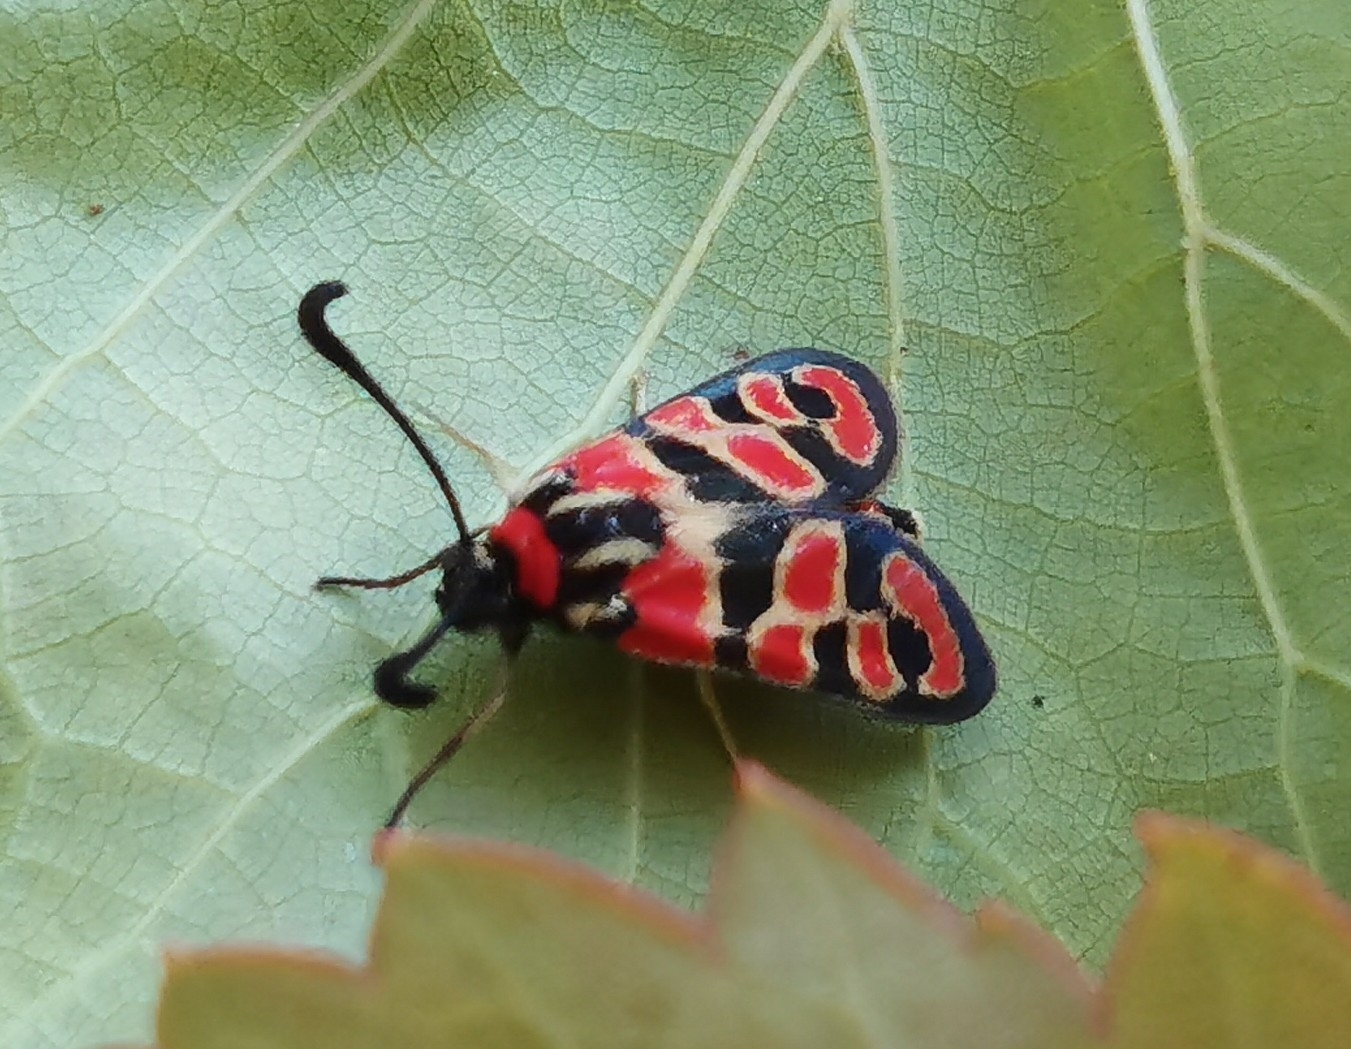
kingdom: Animalia
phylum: Arthropoda
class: Insecta
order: Lepidoptera
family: Zygaenidae
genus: Zygaena
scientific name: Zygaena fausta
